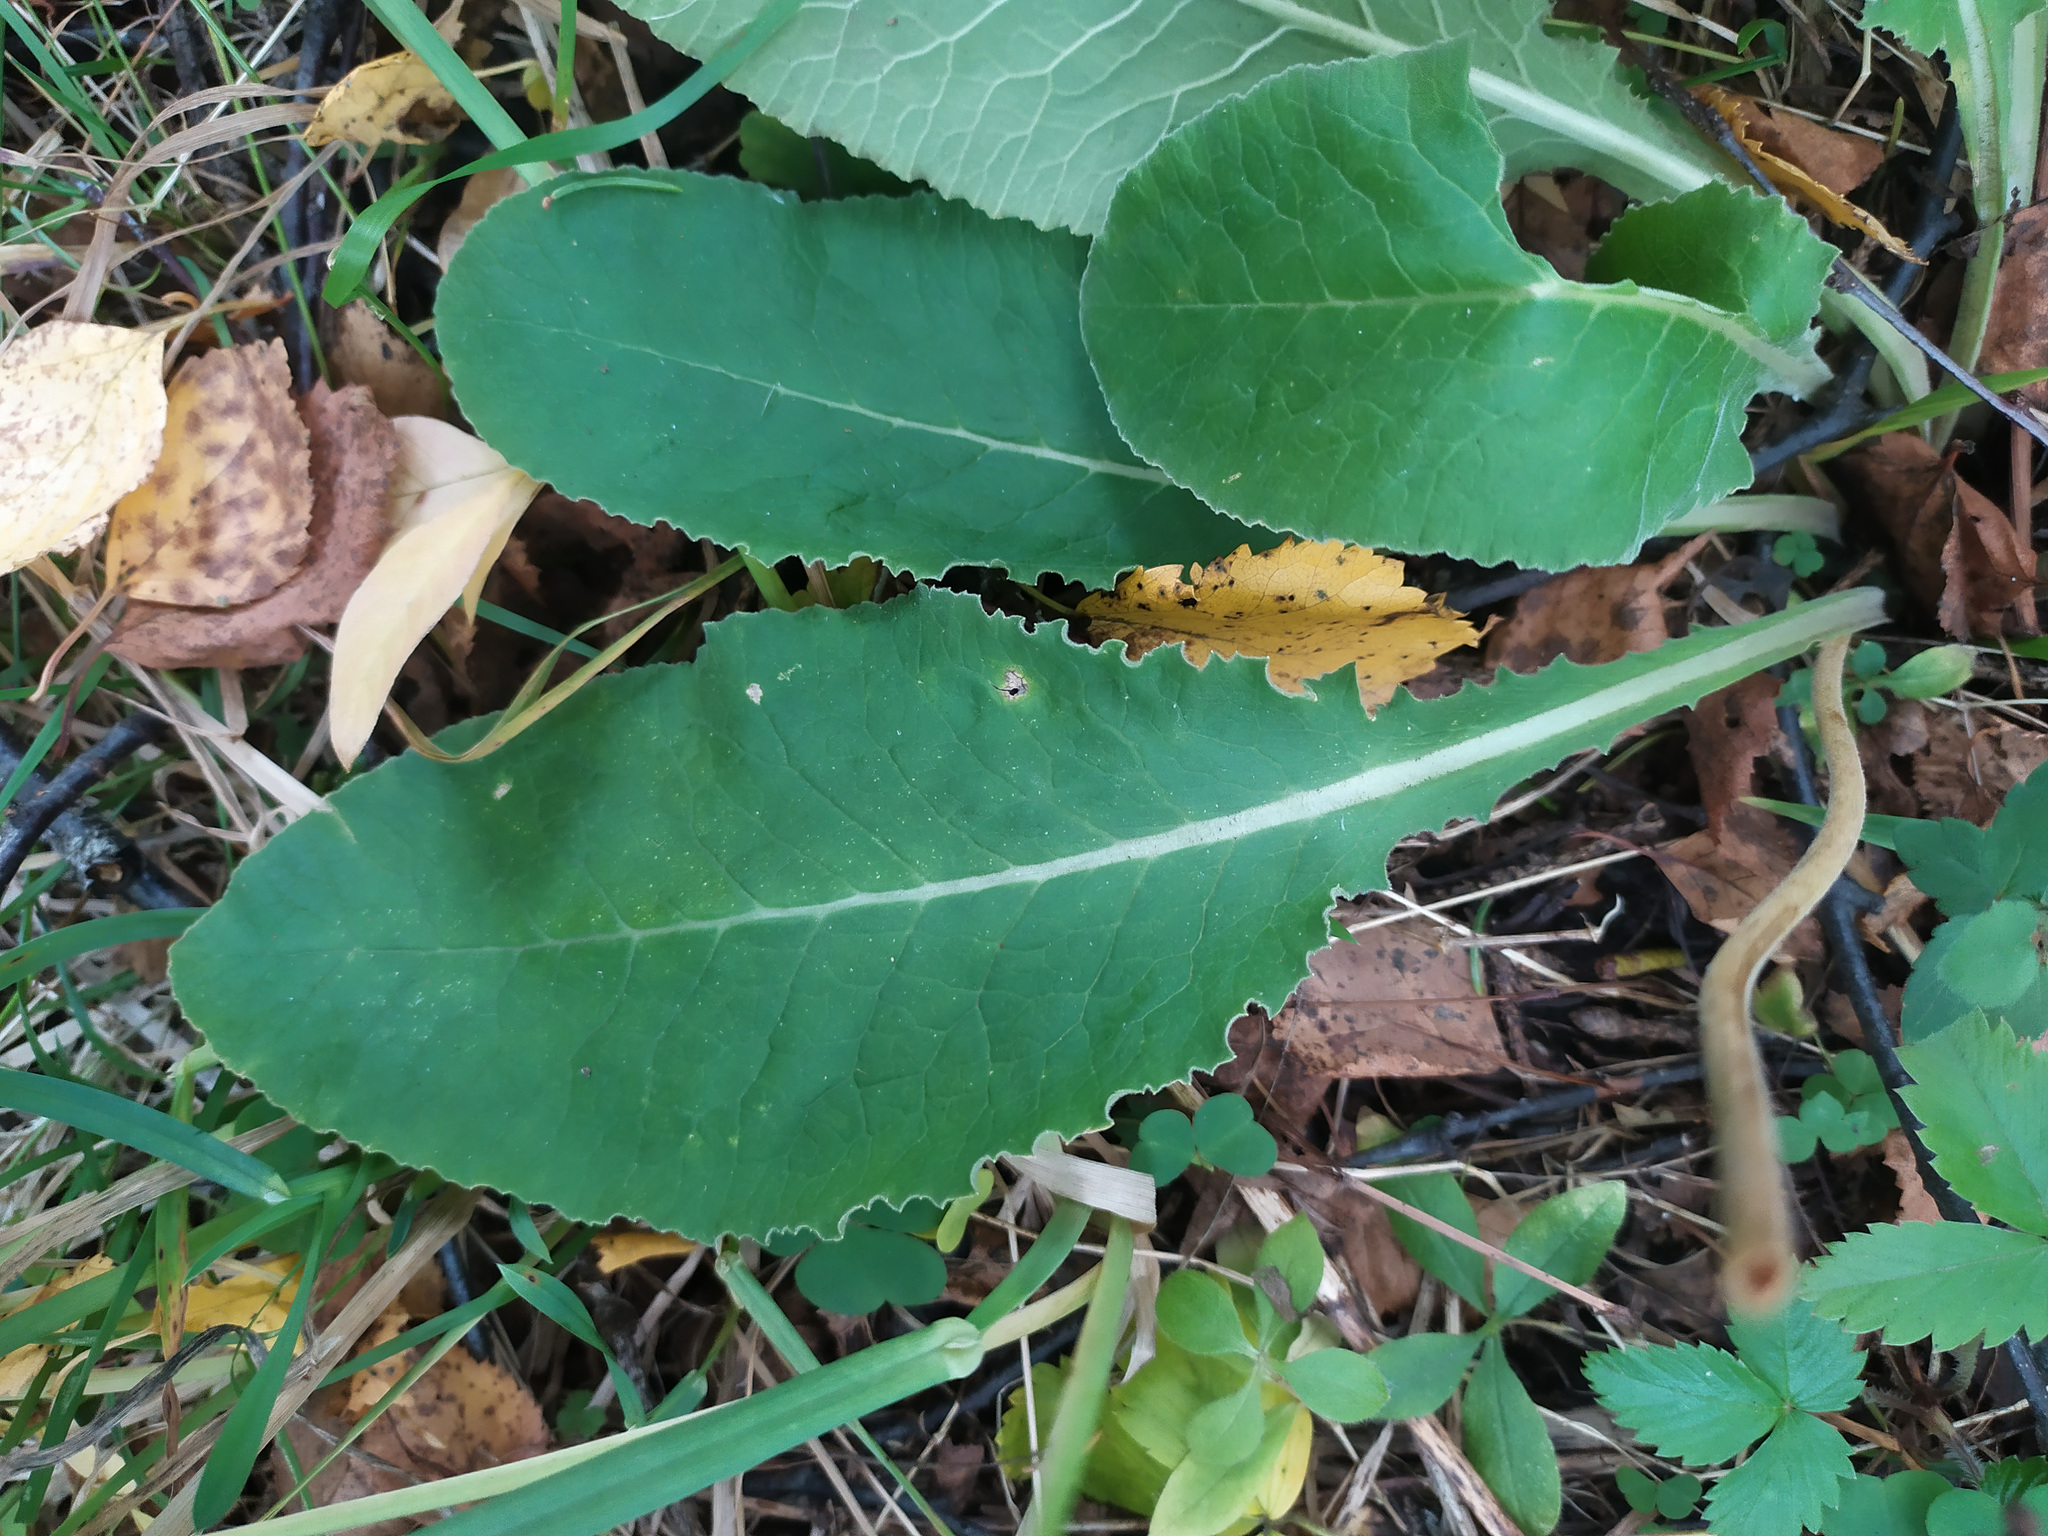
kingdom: Plantae
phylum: Tracheophyta
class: Magnoliopsida
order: Ericales
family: Primulaceae
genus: Primula
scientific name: Primula veris
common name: Cowslip
